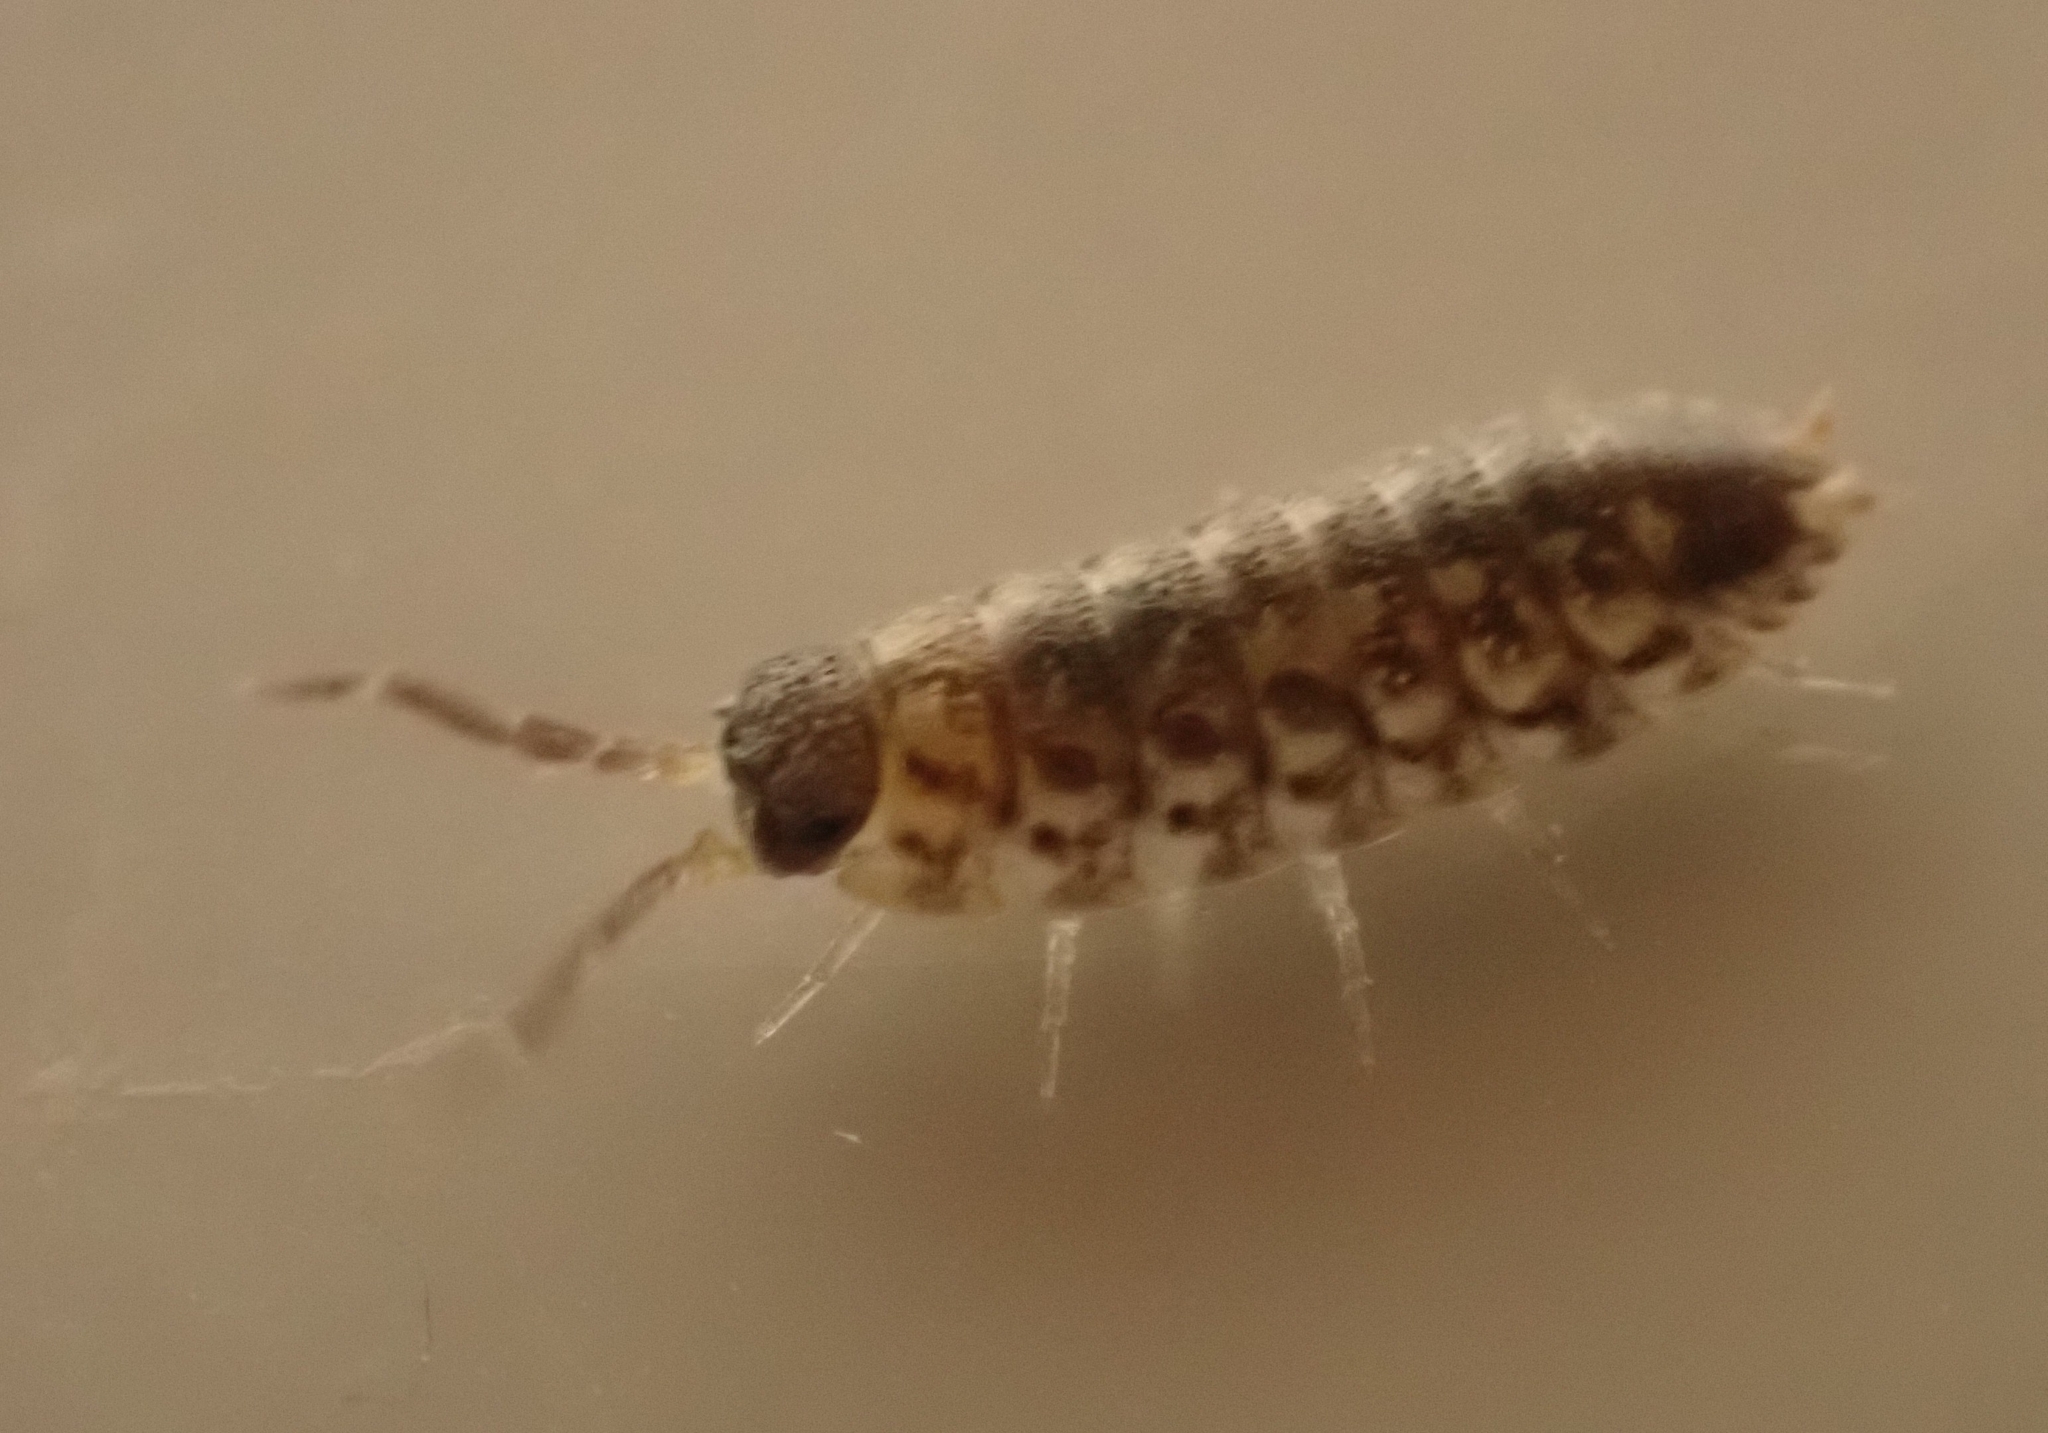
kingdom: Animalia
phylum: Arthropoda
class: Malacostraca
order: Isopoda
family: Porcellionidae
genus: Porcellio
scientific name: Porcellio spinicornis
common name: Painted woodlouse
